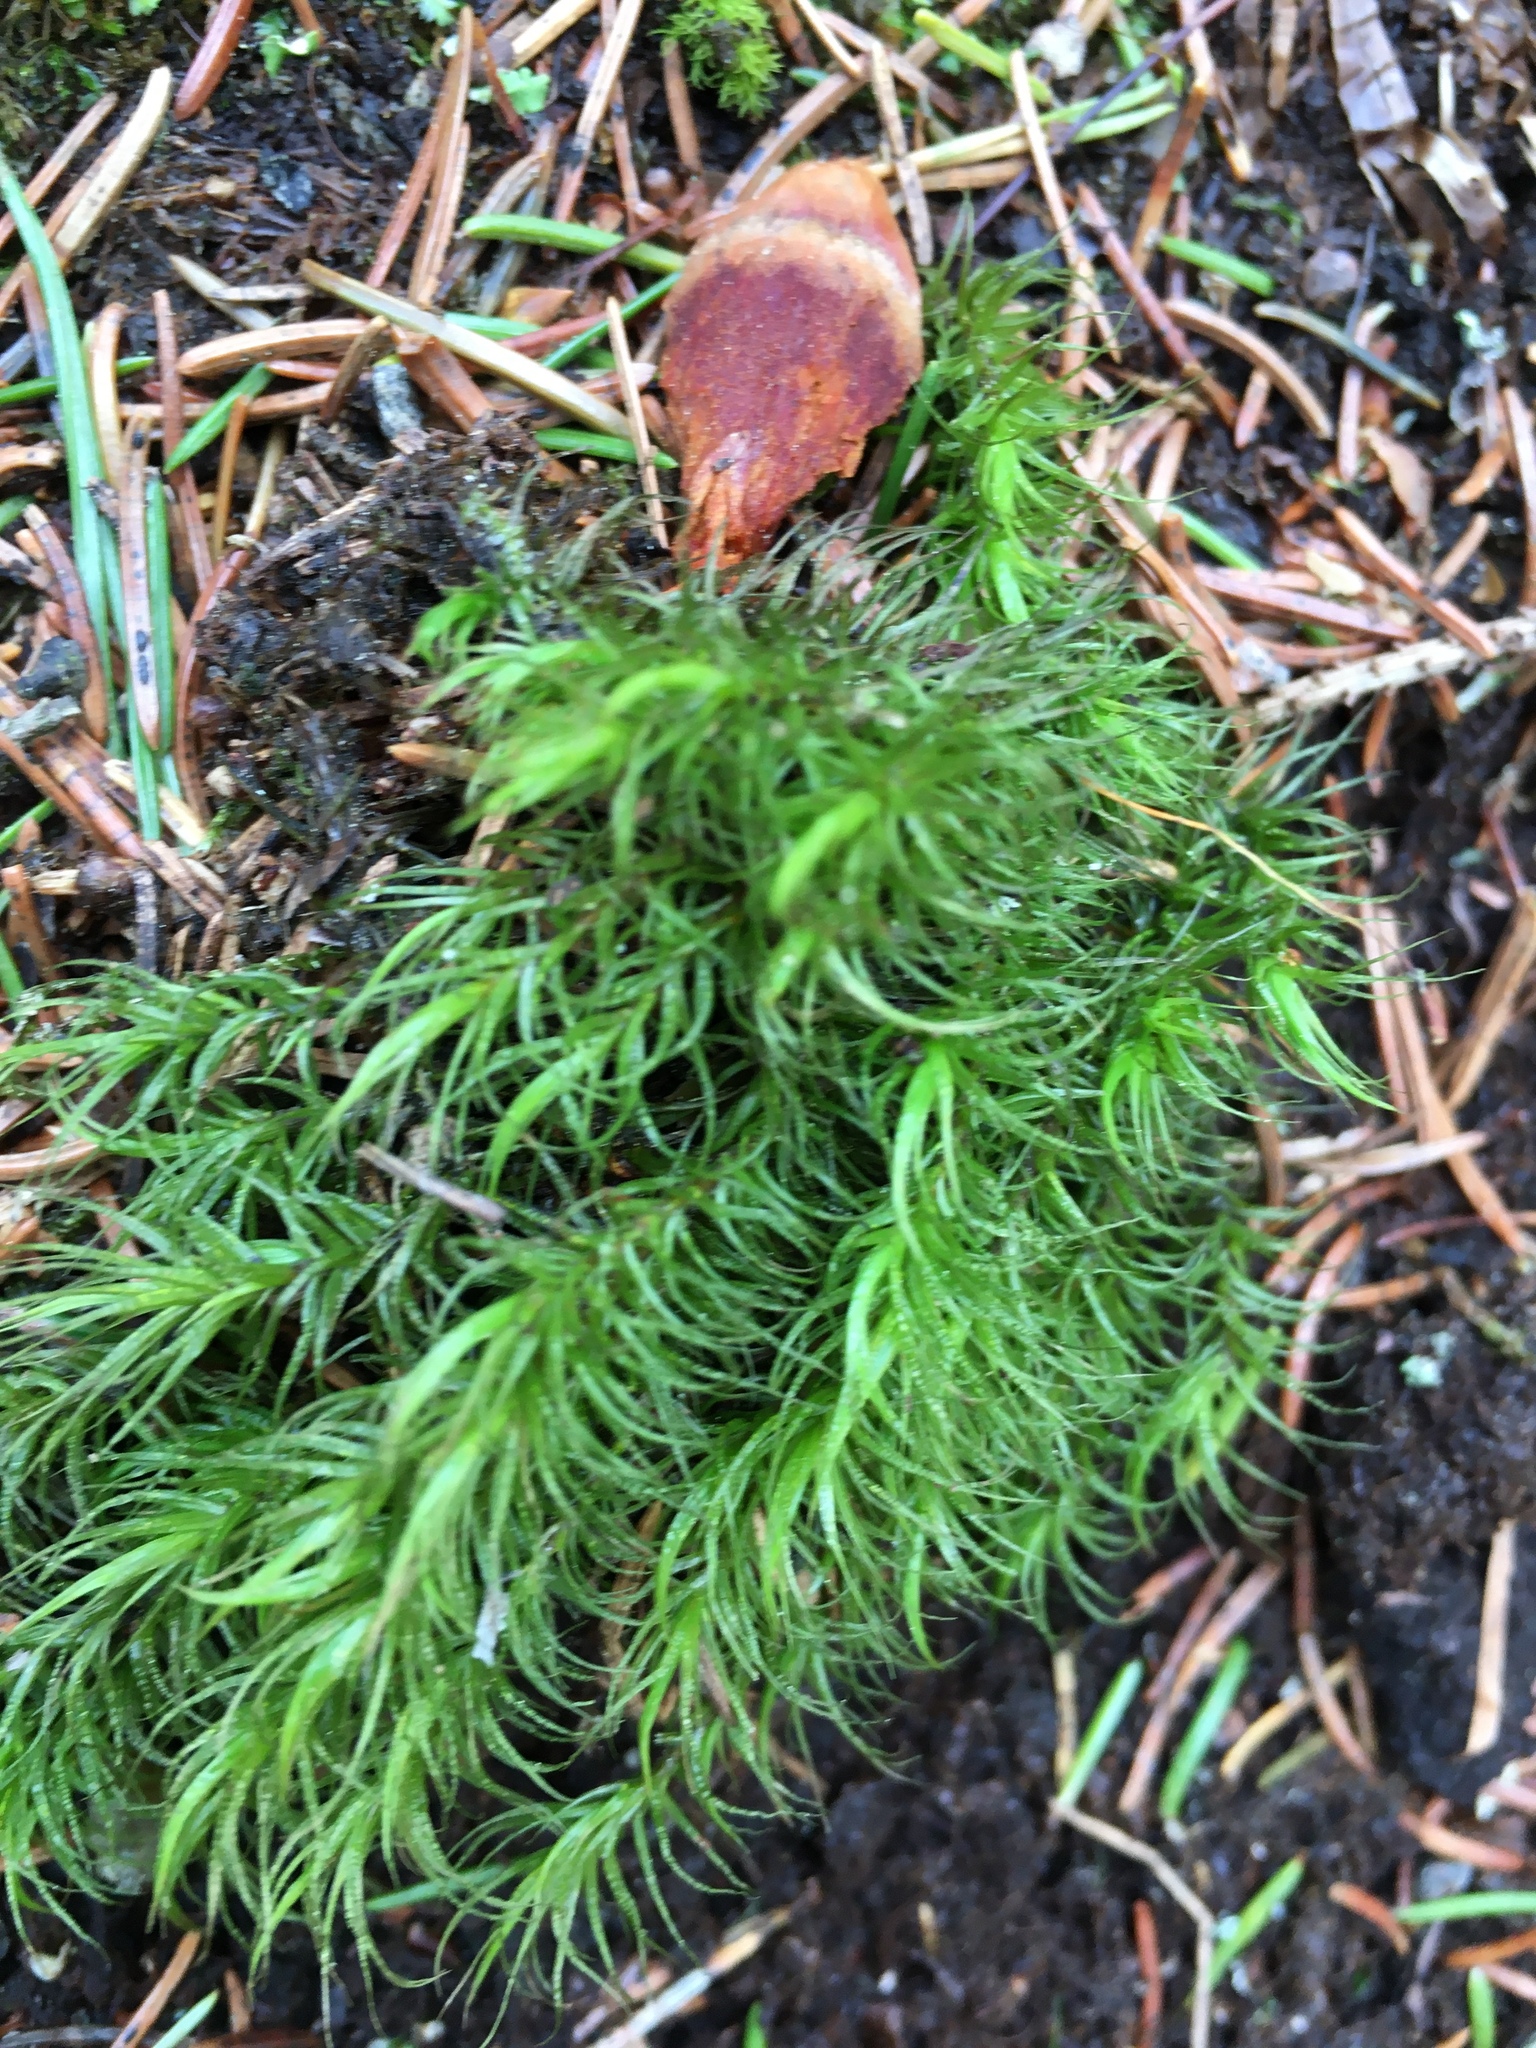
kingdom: Plantae
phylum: Bryophyta
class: Bryopsida
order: Dicranales
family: Dicranaceae
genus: Dicranum
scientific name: Dicranum scoparium
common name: Broom fork-moss
